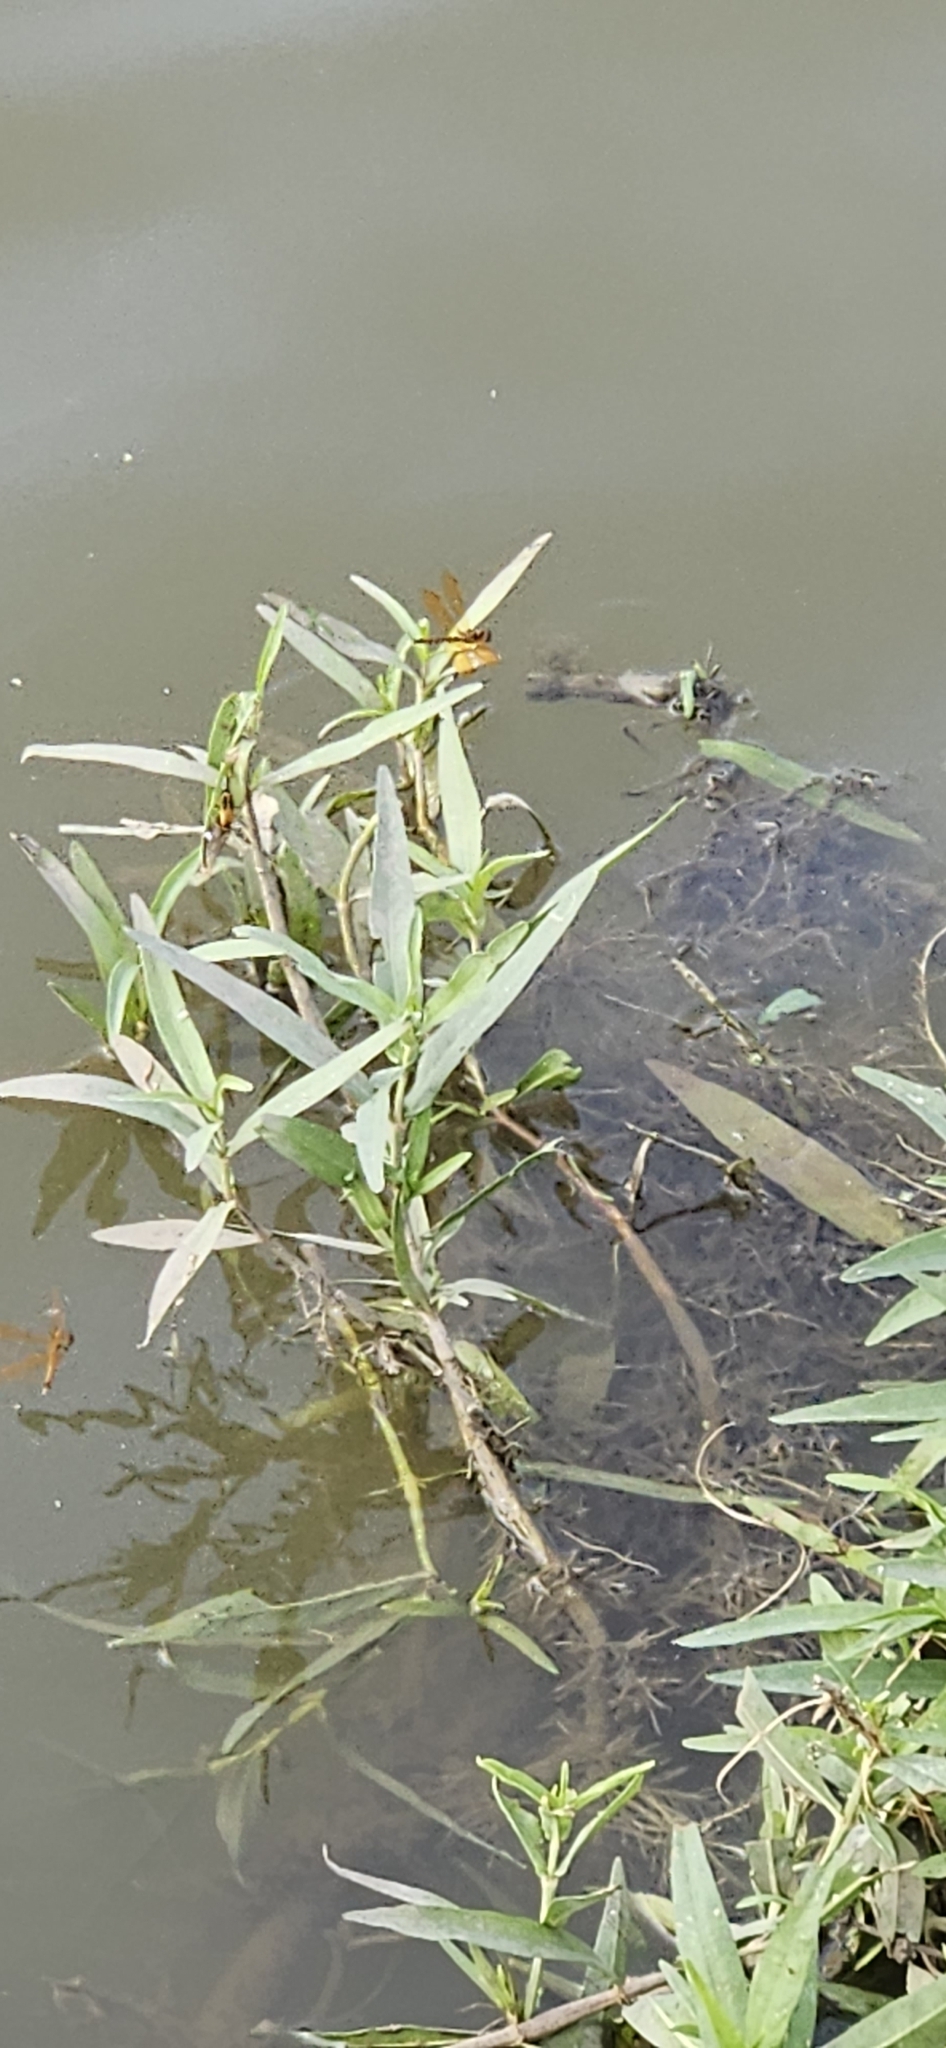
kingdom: Animalia
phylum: Arthropoda
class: Insecta
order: Odonata
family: Libellulidae
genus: Perithemis
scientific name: Perithemis tenera
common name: Eastern amberwing
